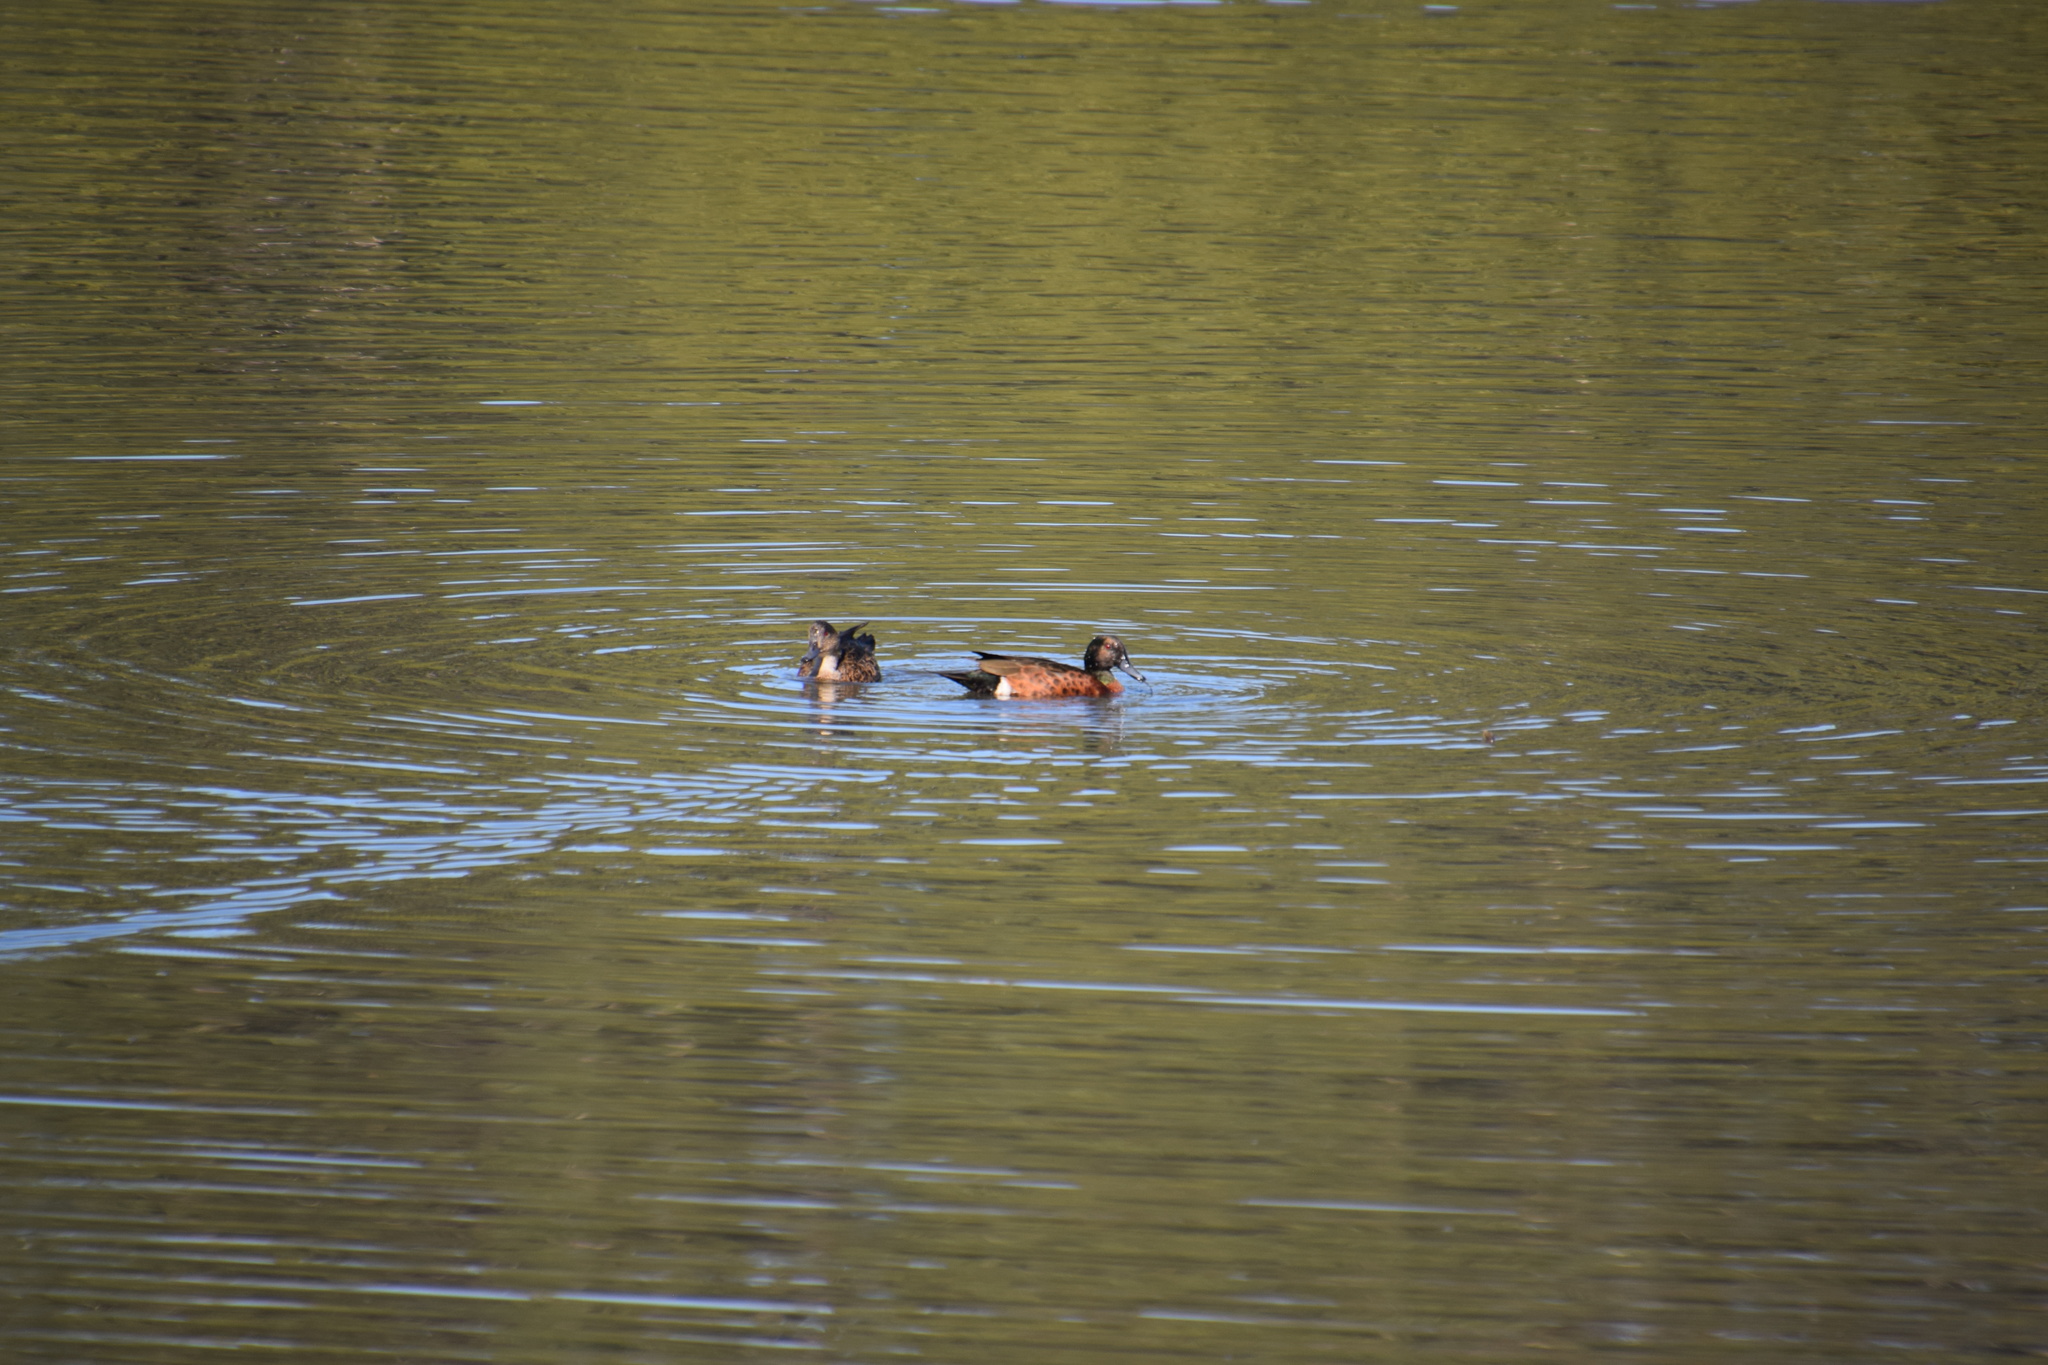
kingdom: Animalia
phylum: Chordata
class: Aves
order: Anseriformes
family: Anatidae
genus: Anas
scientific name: Anas castanea
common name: Chestnut teal
